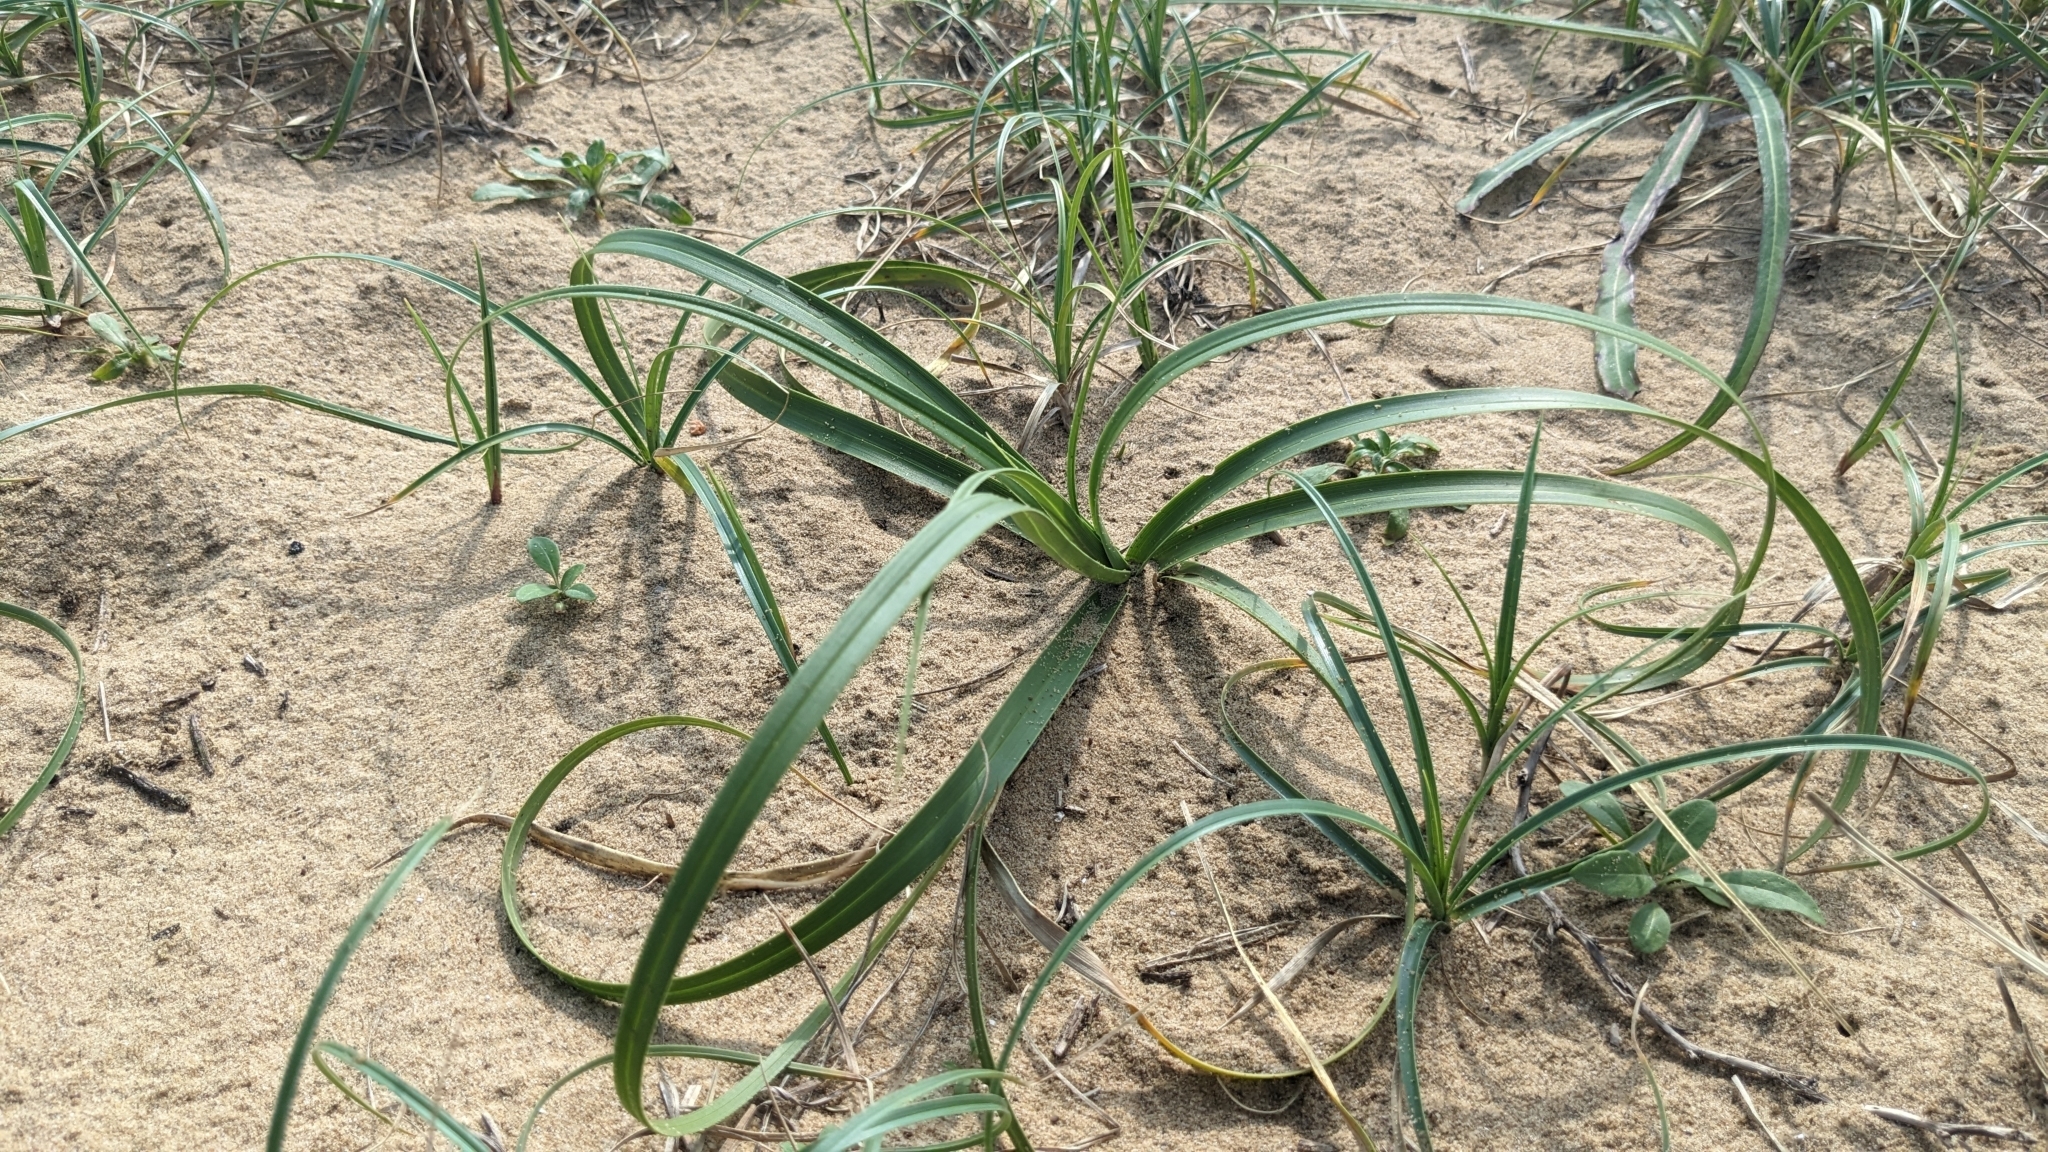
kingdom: Plantae
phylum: Tracheophyta
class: Liliopsida
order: Poales
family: Cyperaceae
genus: Carex
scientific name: Carex kobomugi
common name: Japanese sedge
